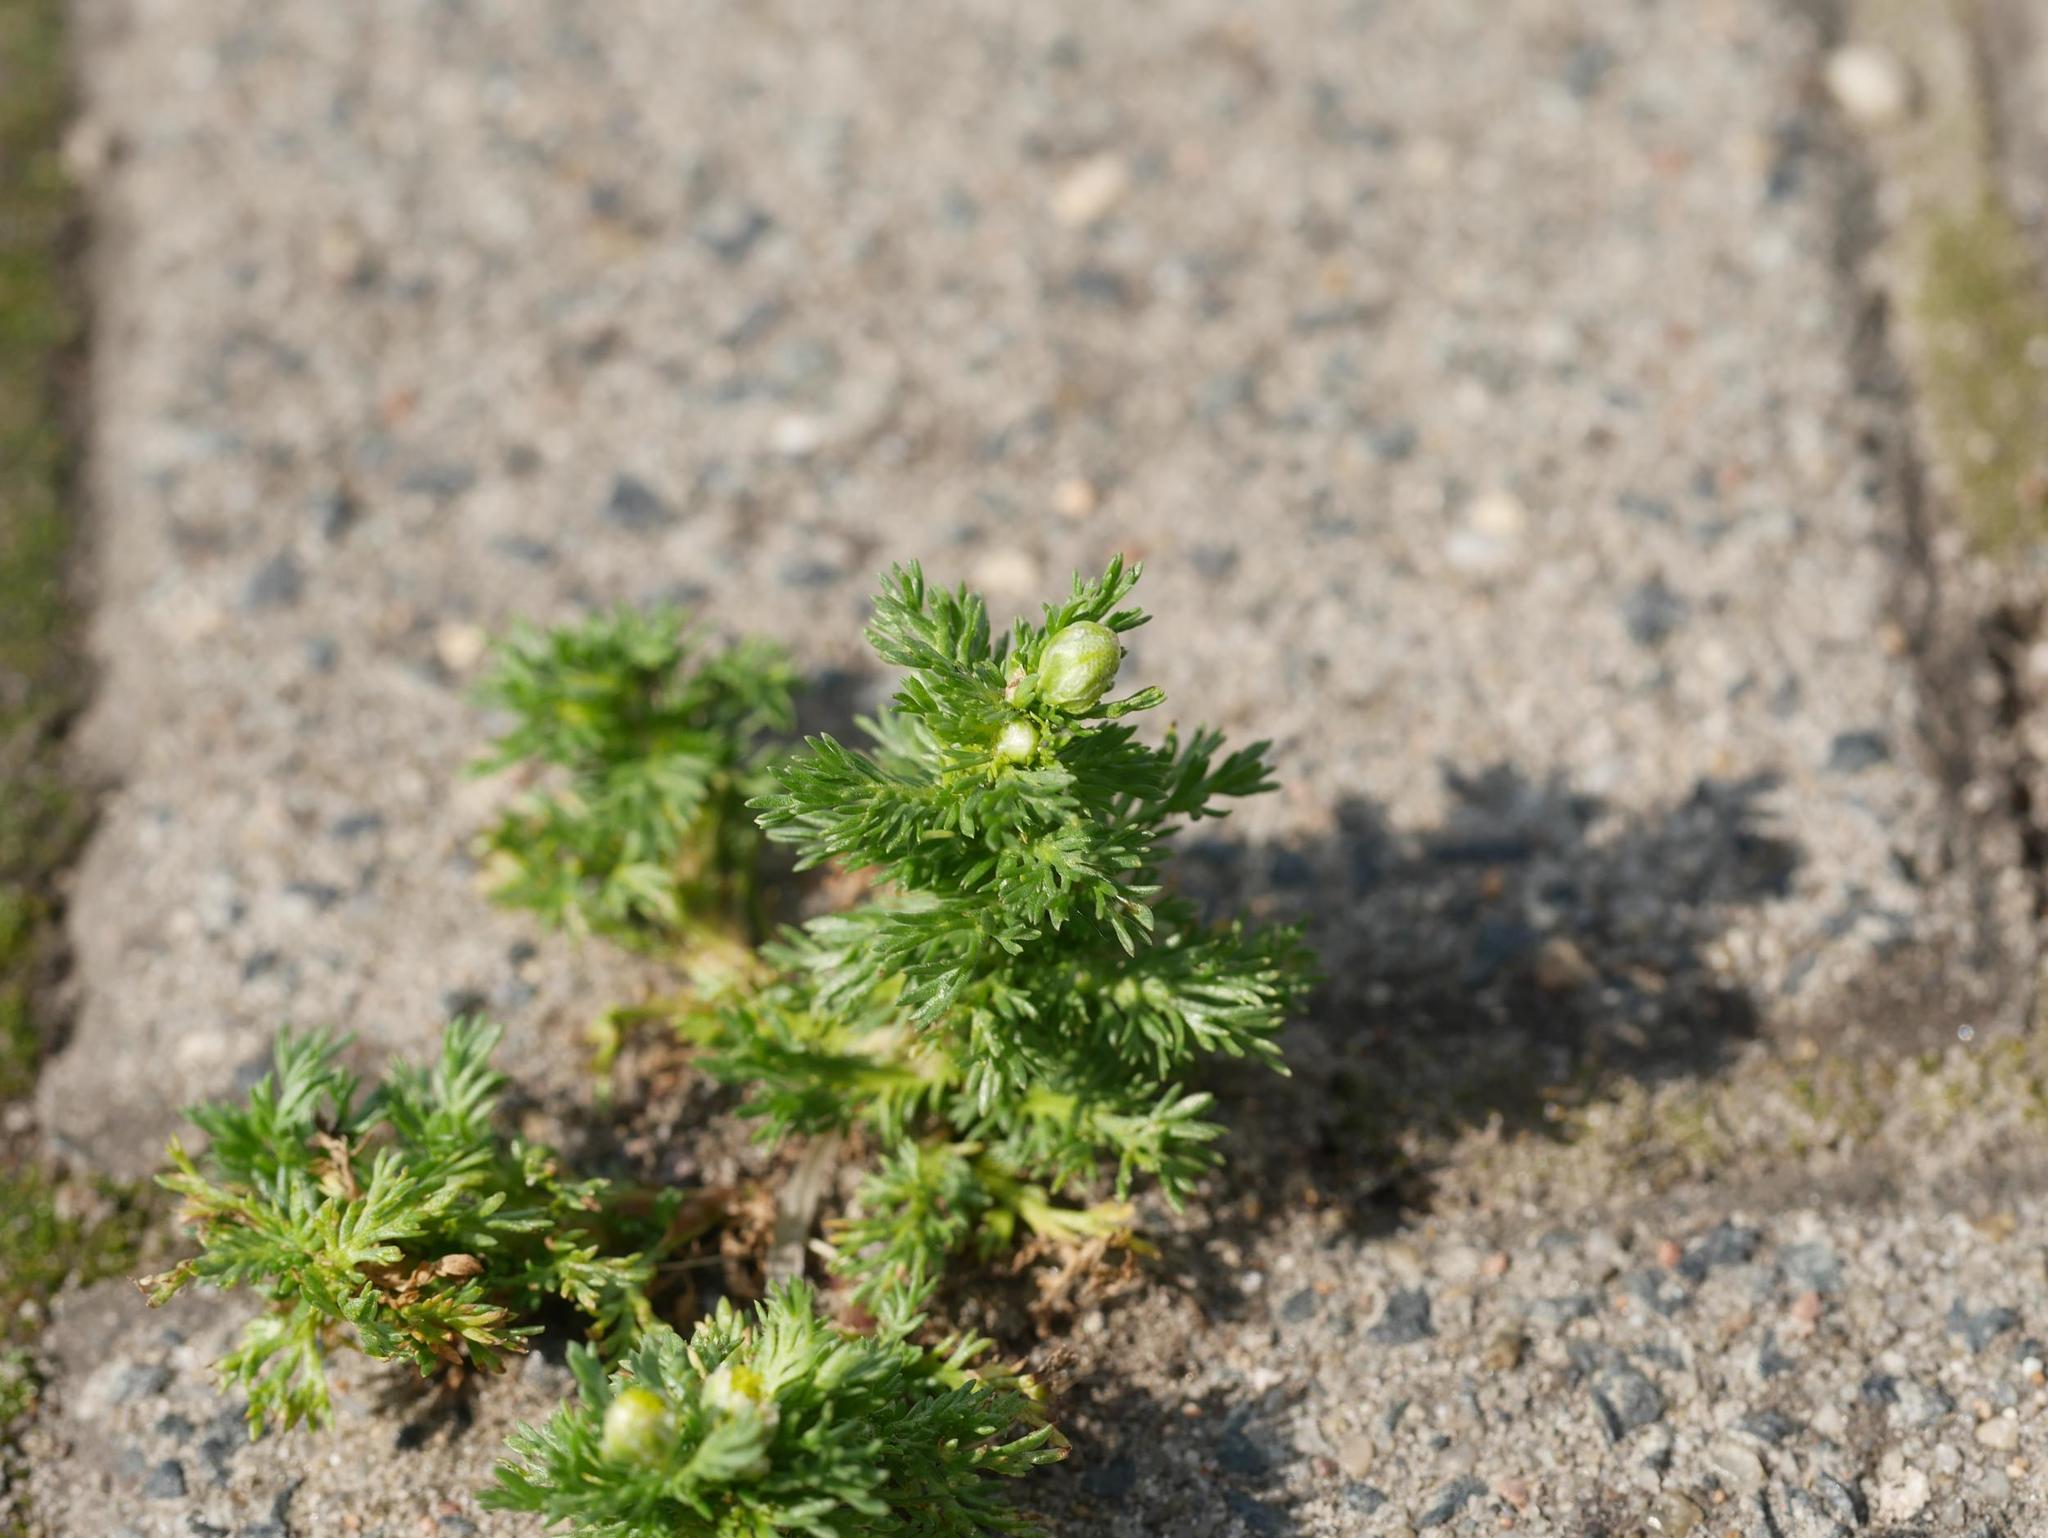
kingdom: Plantae
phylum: Tracheophyta
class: Magnoliopsida
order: Asterales
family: Asteraceae
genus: Matricaria
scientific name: Matricaria discoidea
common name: Disc mayweed
